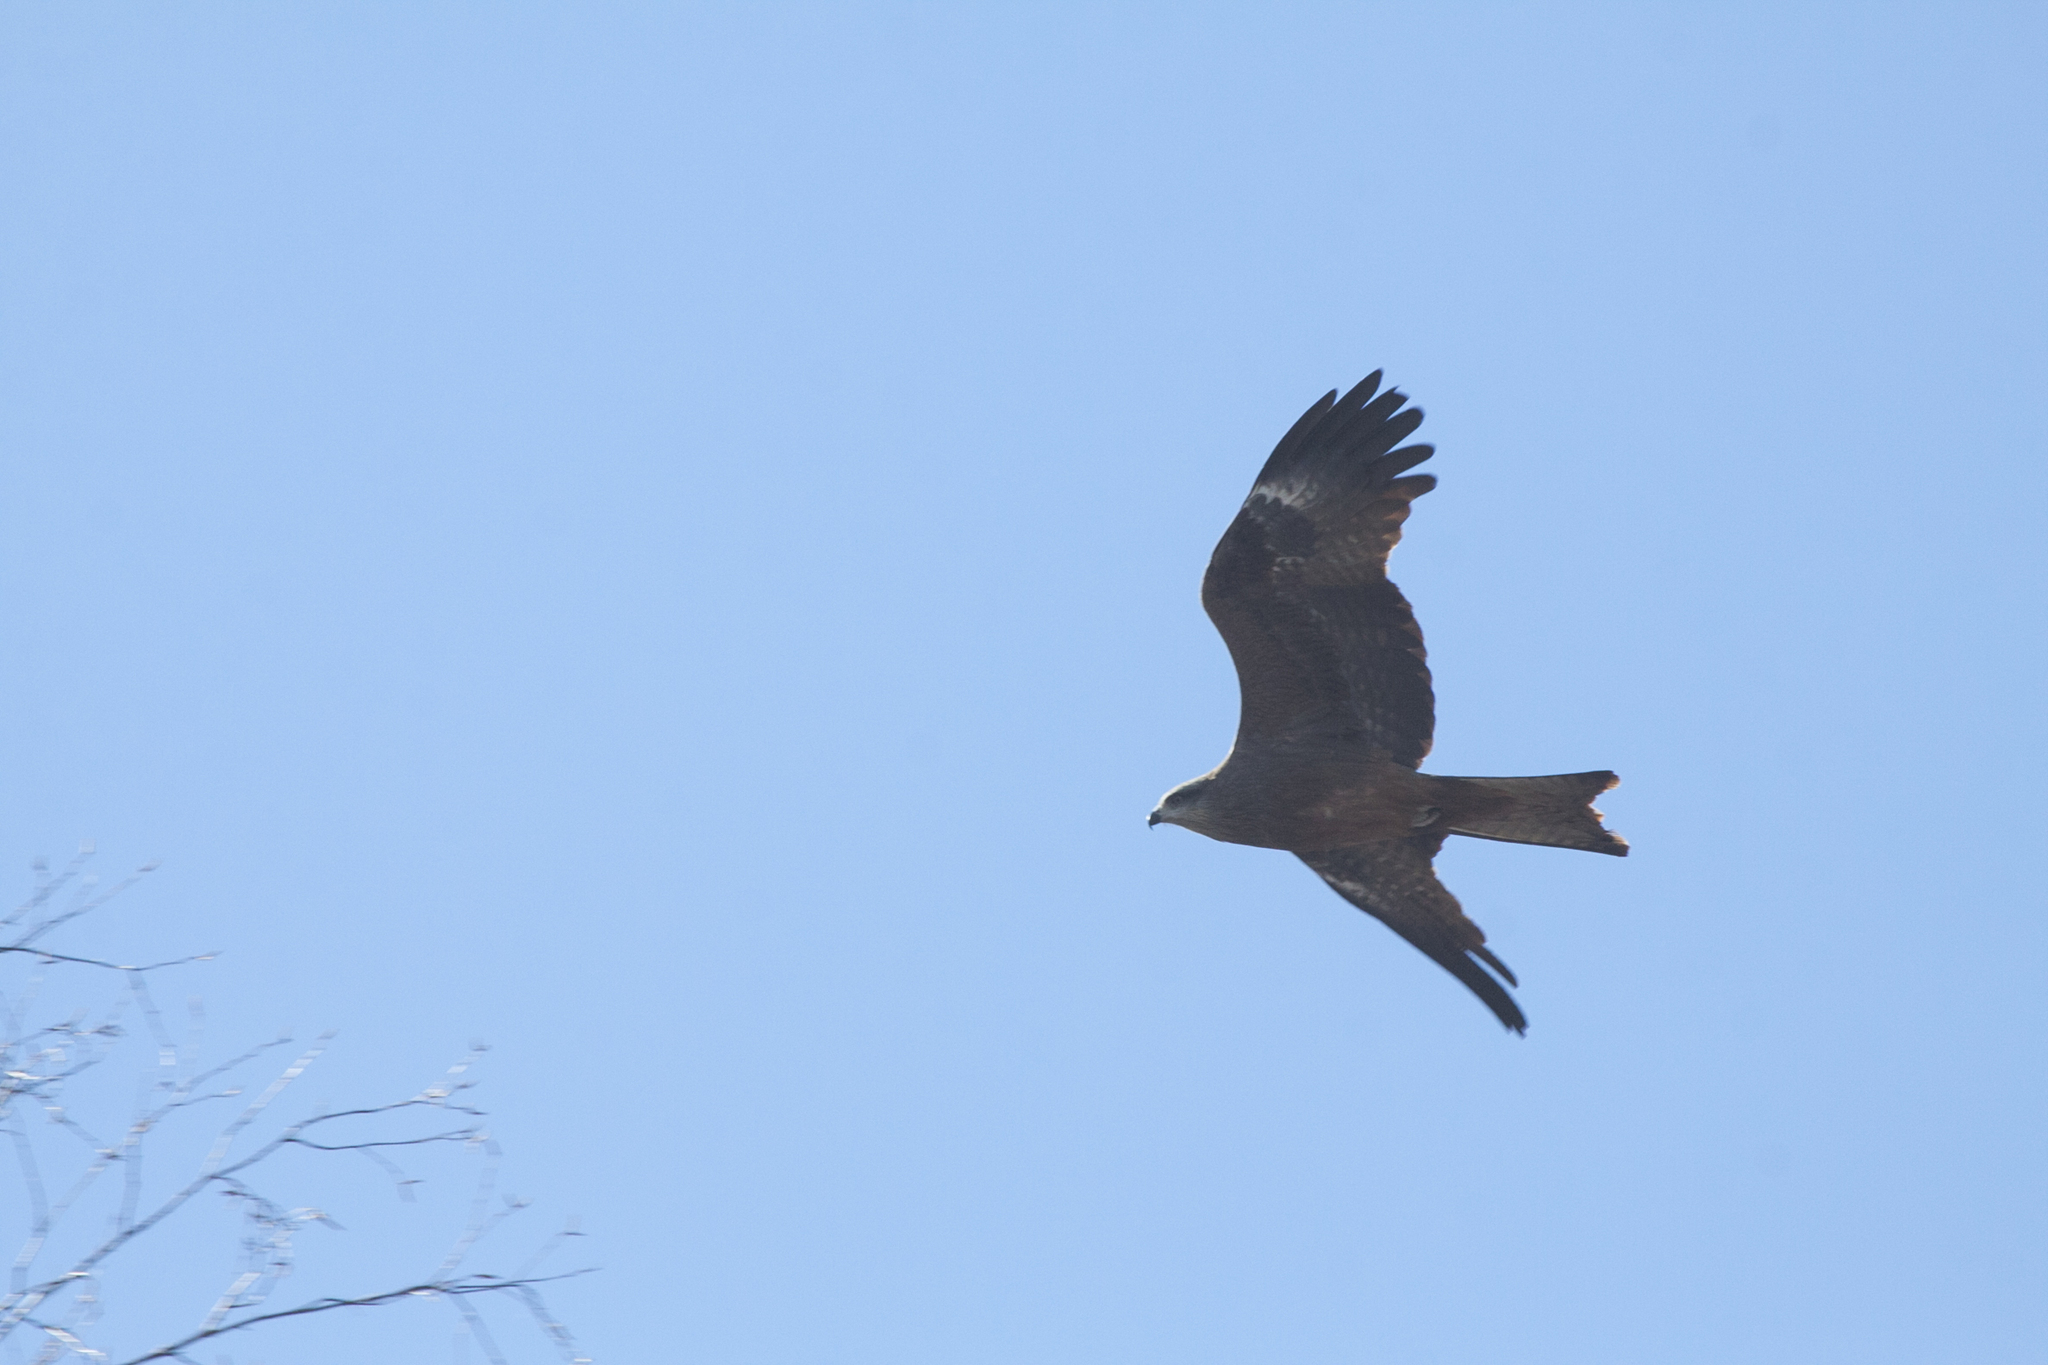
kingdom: Animalia
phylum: Chordata
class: Aves
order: Accipitriformes
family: Accipitridae
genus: Milvus
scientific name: Milvus migrans
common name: Black kite
